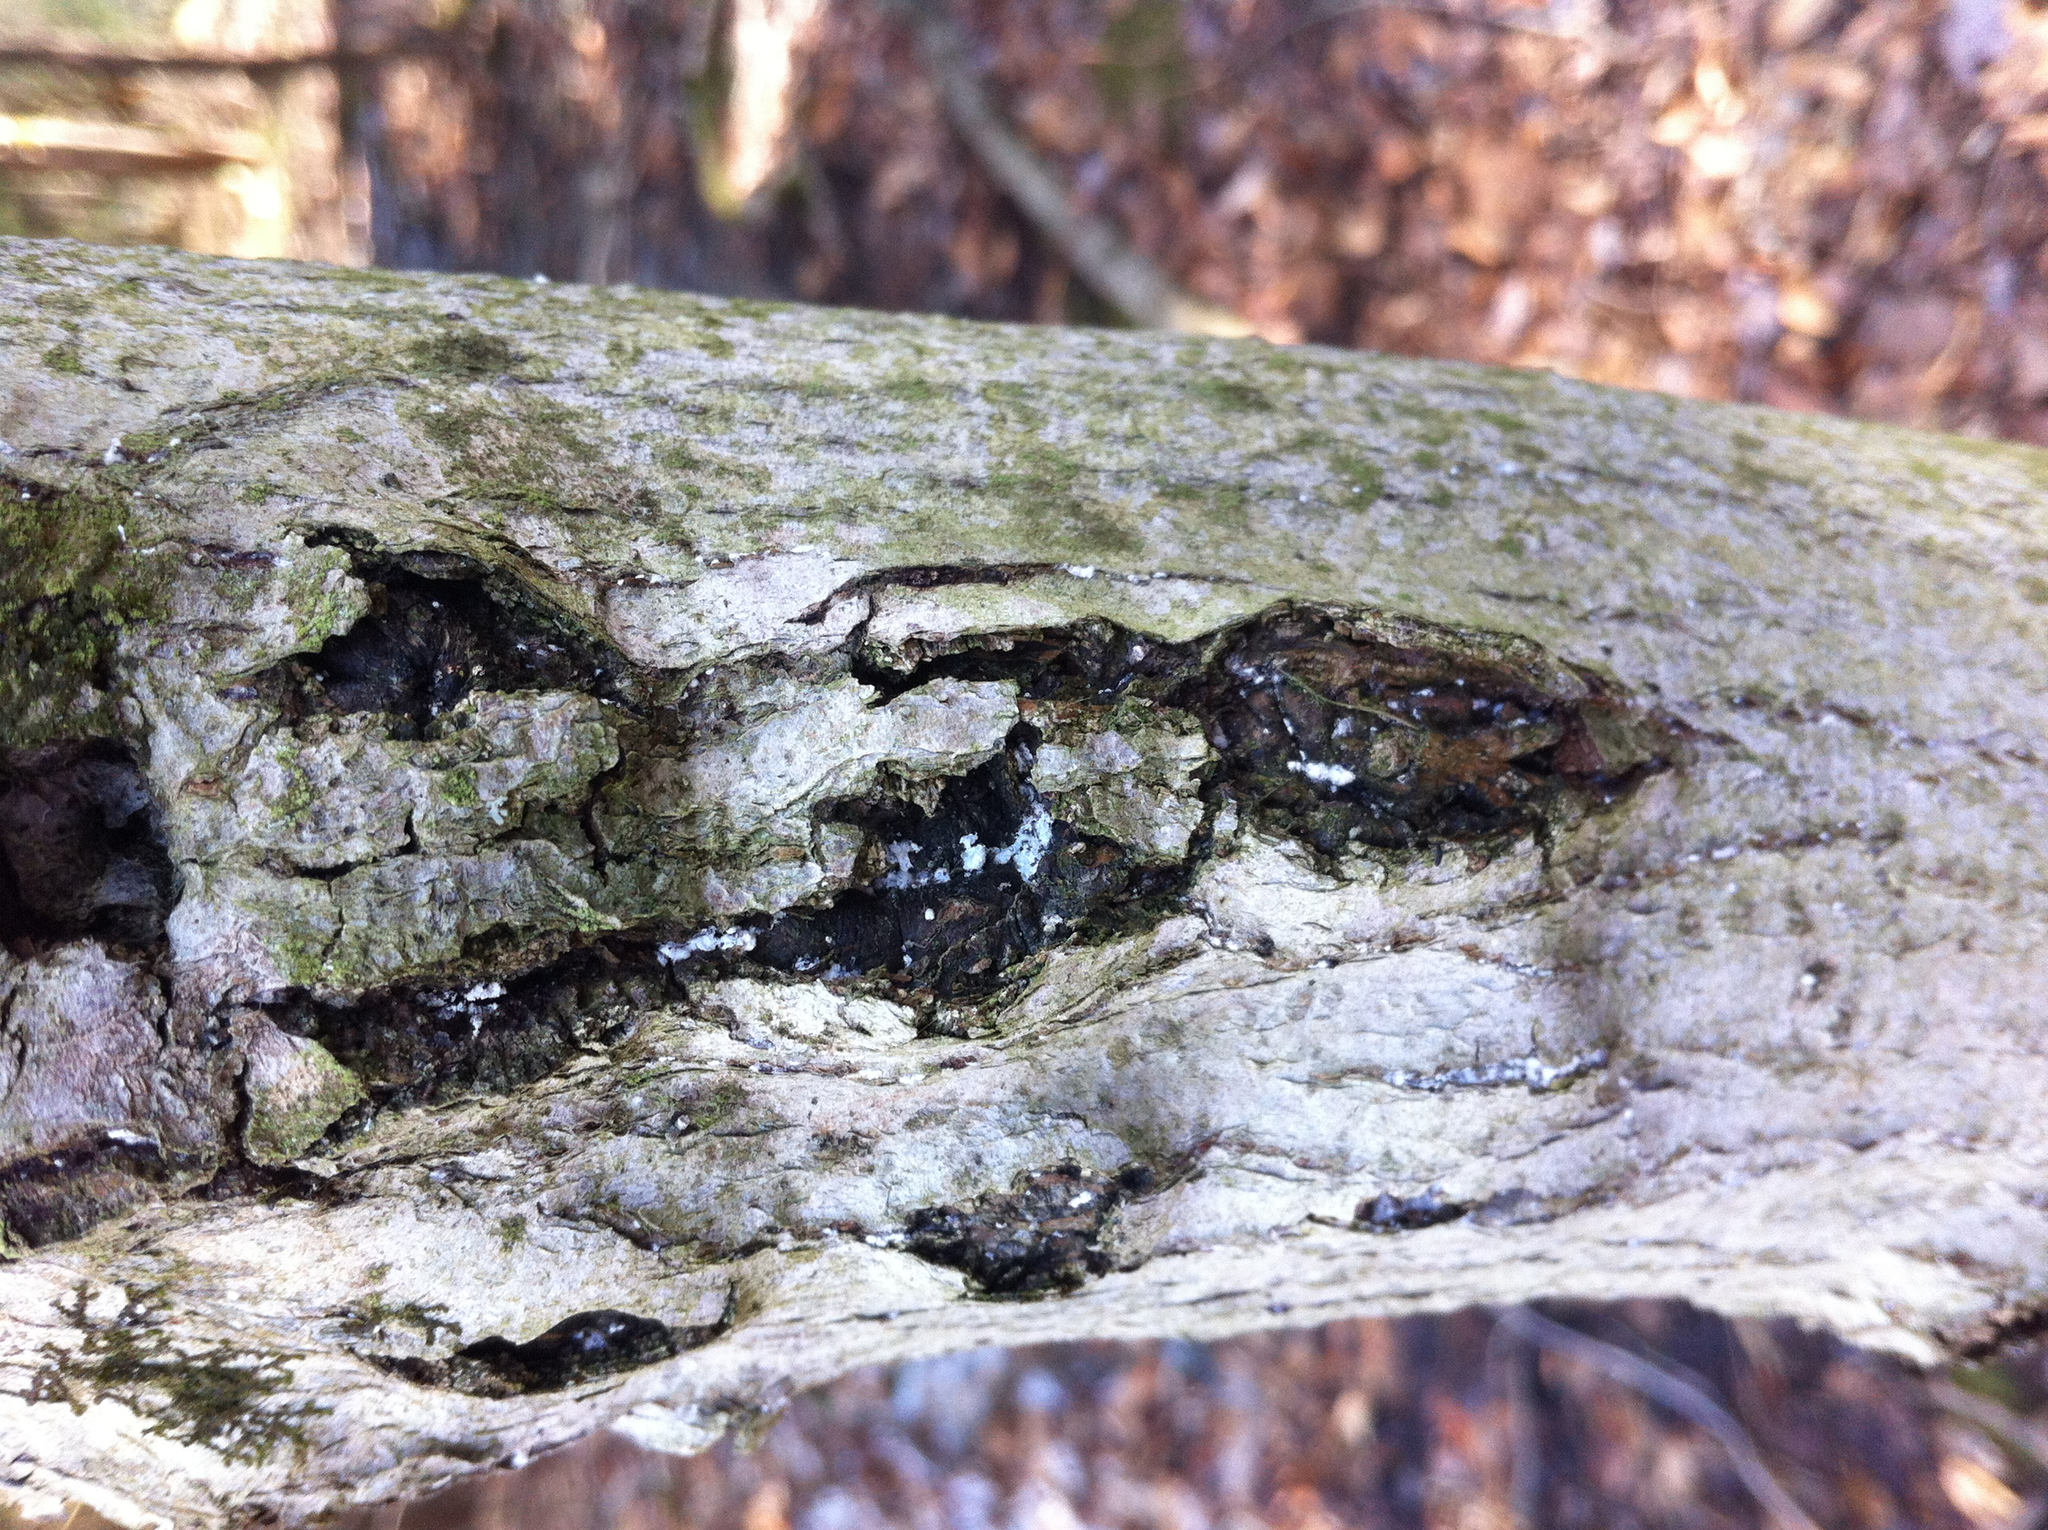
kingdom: Animalia
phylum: Arthropoda
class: Insecta
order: Hemiptera
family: Eriococcidae
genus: Cryptococcus
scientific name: Cryptococcus fagisuga
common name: Beech scale
